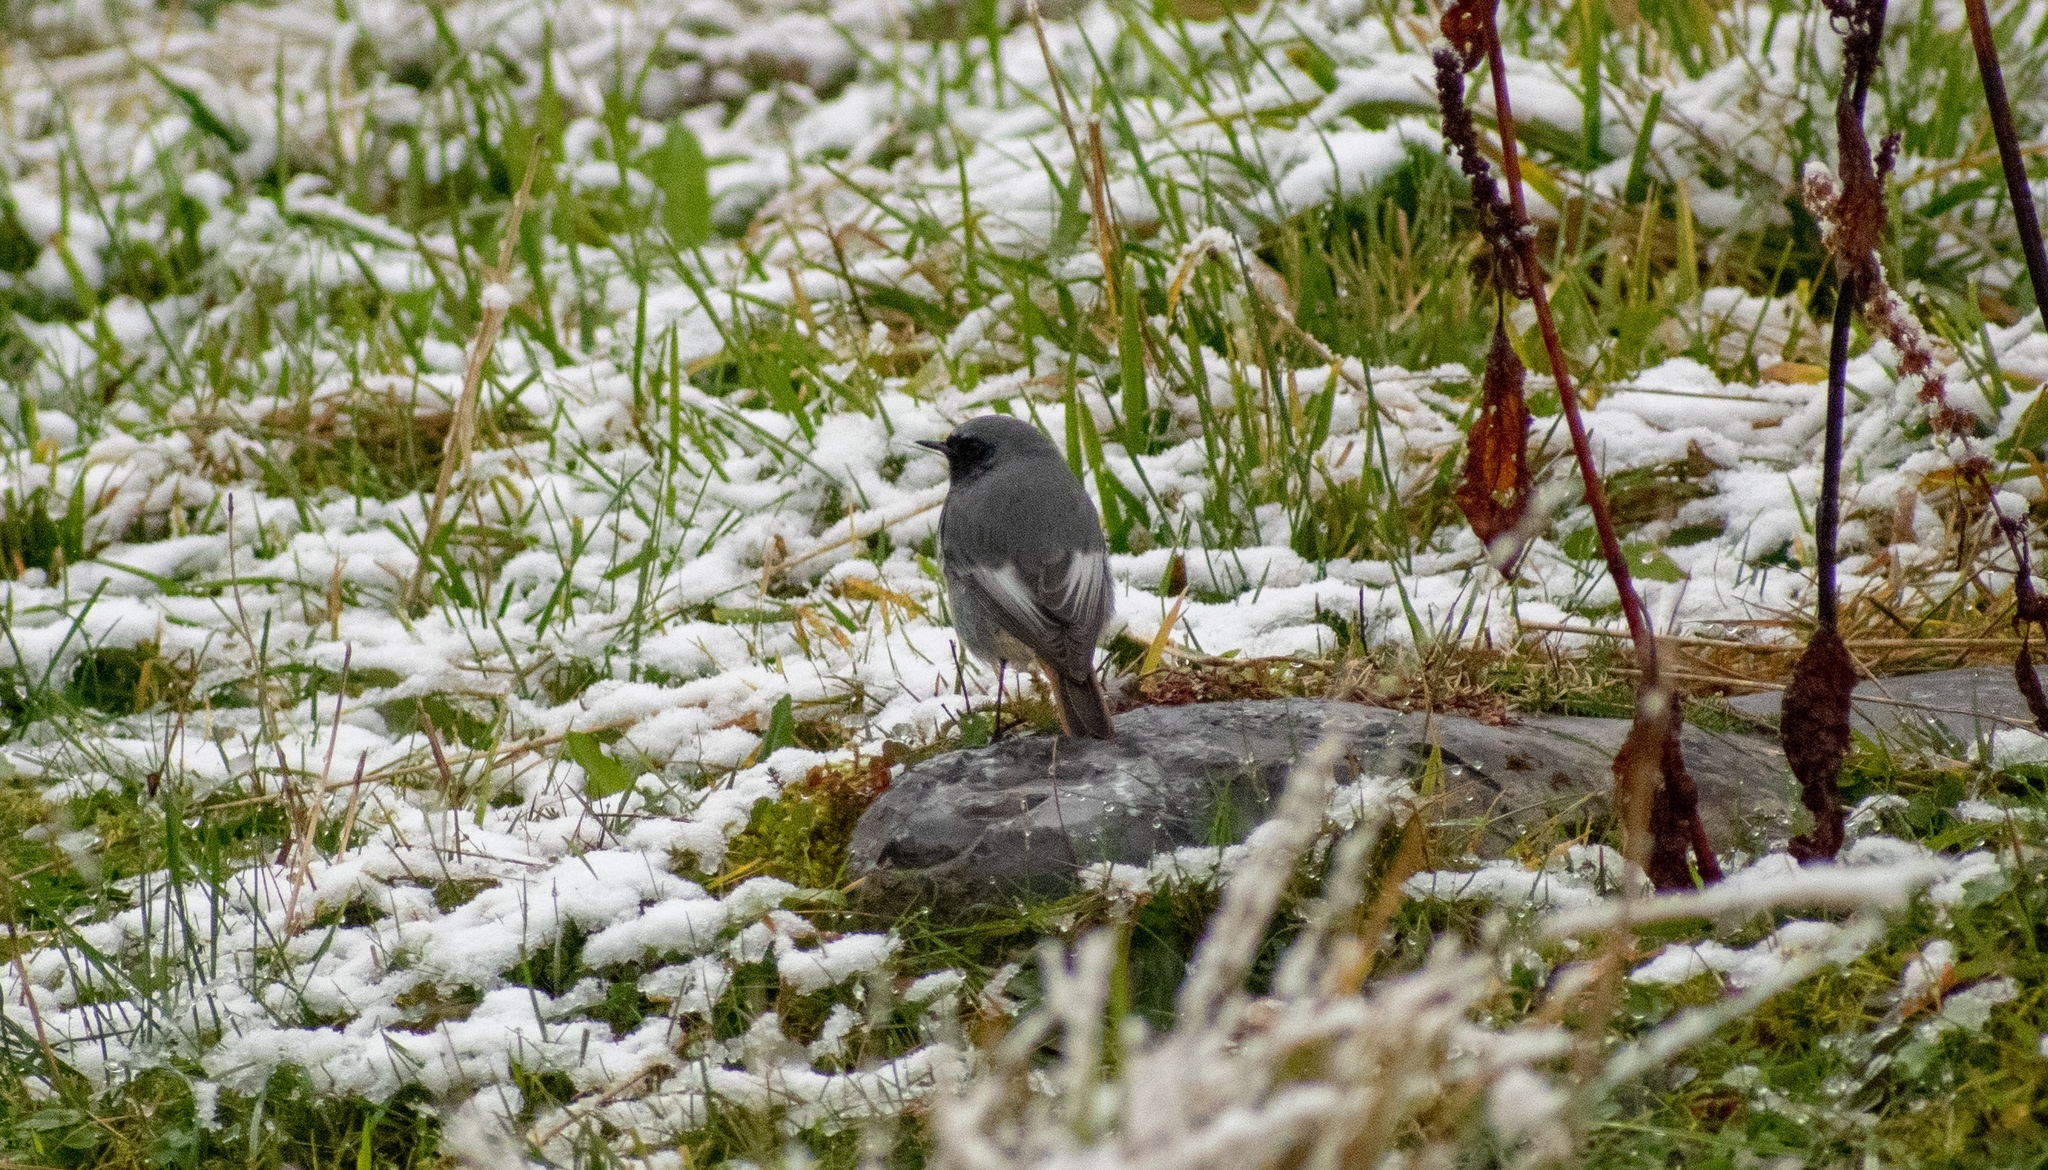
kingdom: Animalia
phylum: Chordata
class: Aves
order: Passeriformes
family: Muscicapidae
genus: Phoenicurus
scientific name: Phoenicurus ochruros
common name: Black redstart
